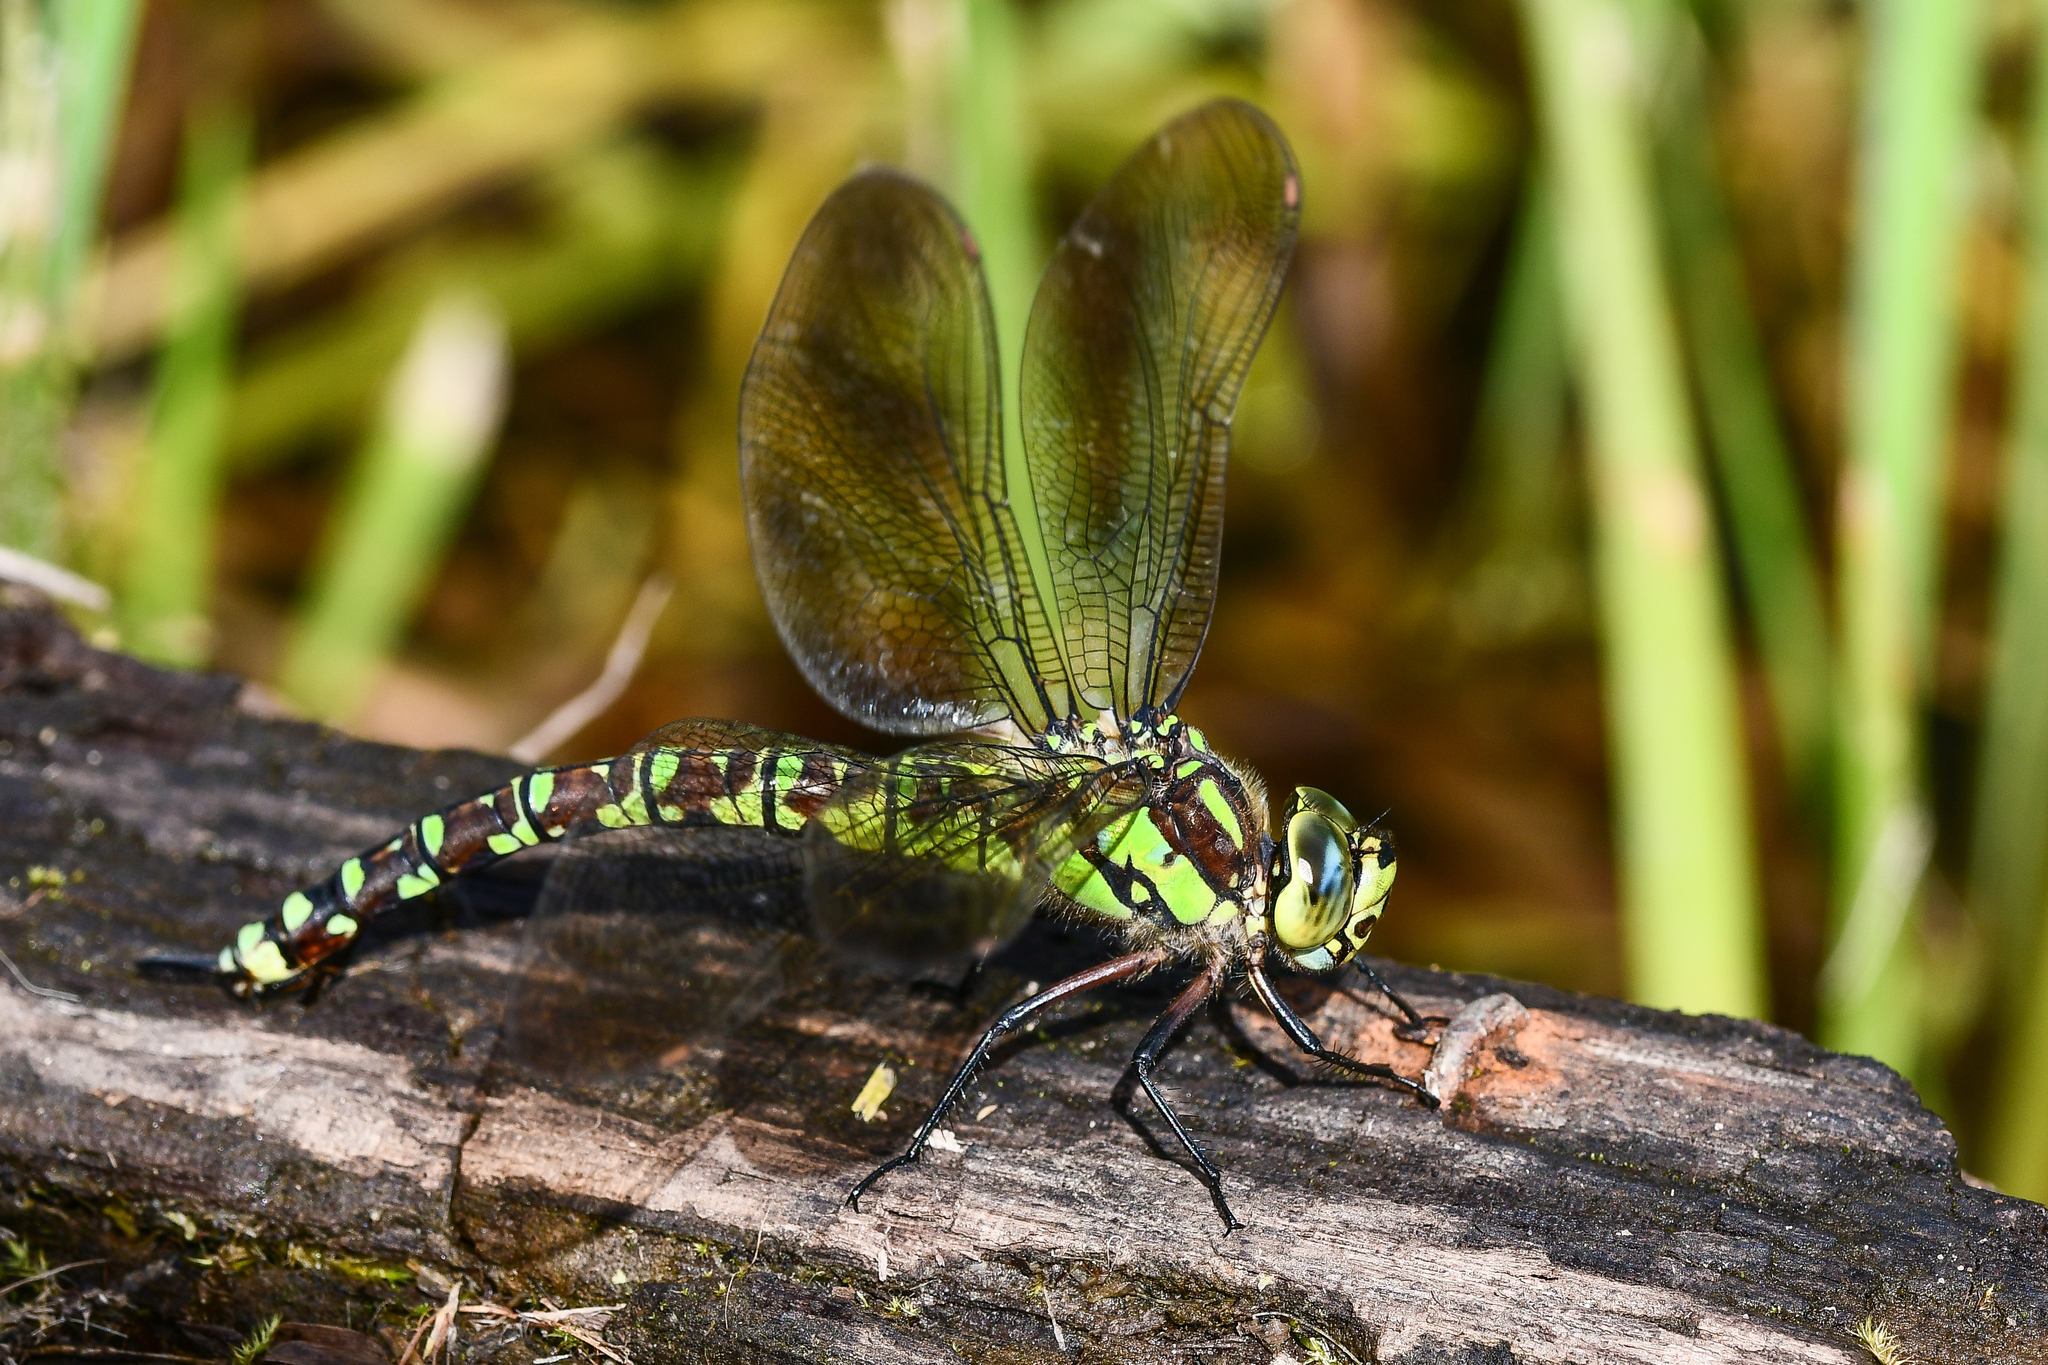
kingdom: Animalia
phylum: Arthropoda
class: Insecta
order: Odonata
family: Aeshnidae
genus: Aeshna
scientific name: Aeshna cyanea
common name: Southern hawker
